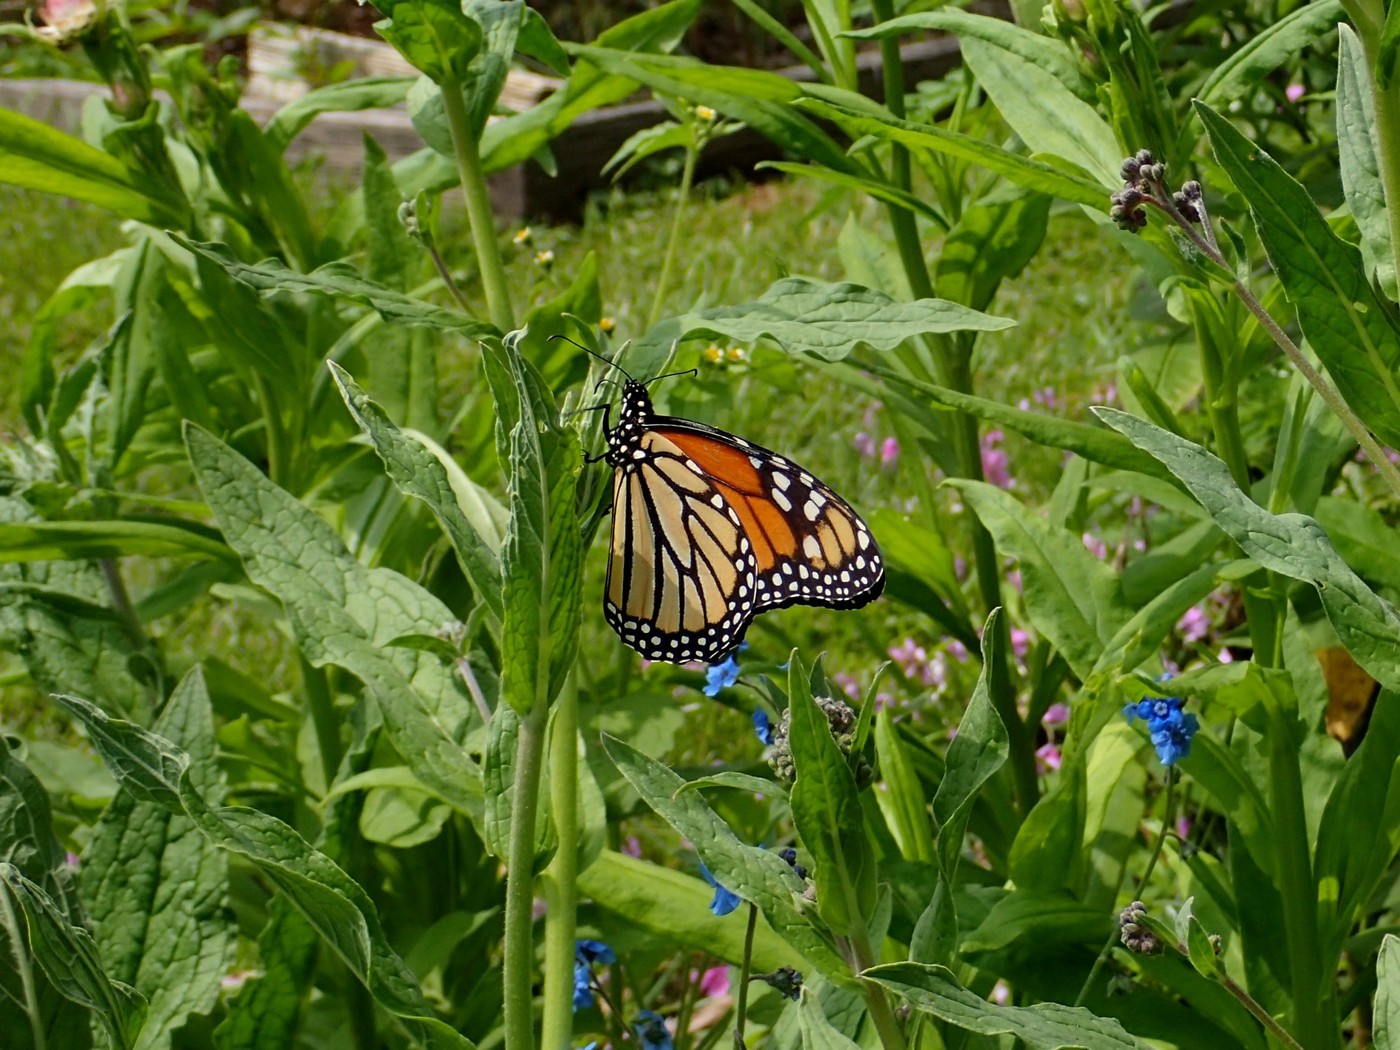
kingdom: Animalia
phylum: Arthropoda
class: Insecta
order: Lepidoptera
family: Nymphalidae
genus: Danaus
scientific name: Danaus plexippus
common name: Monarch
